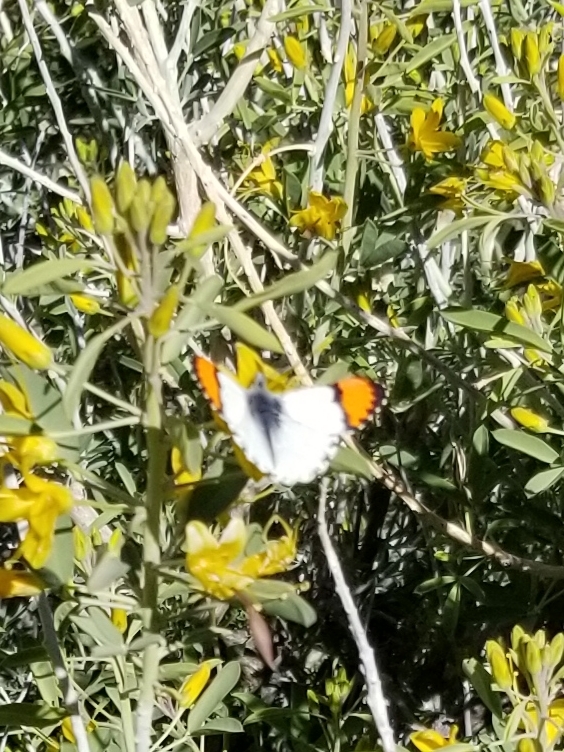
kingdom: Animalia
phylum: Arthropoda
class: Insecta
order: Lepidoptera
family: Pieridae
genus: Anthocharis
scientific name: Anthocharis sara
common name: Sara's orangetip
